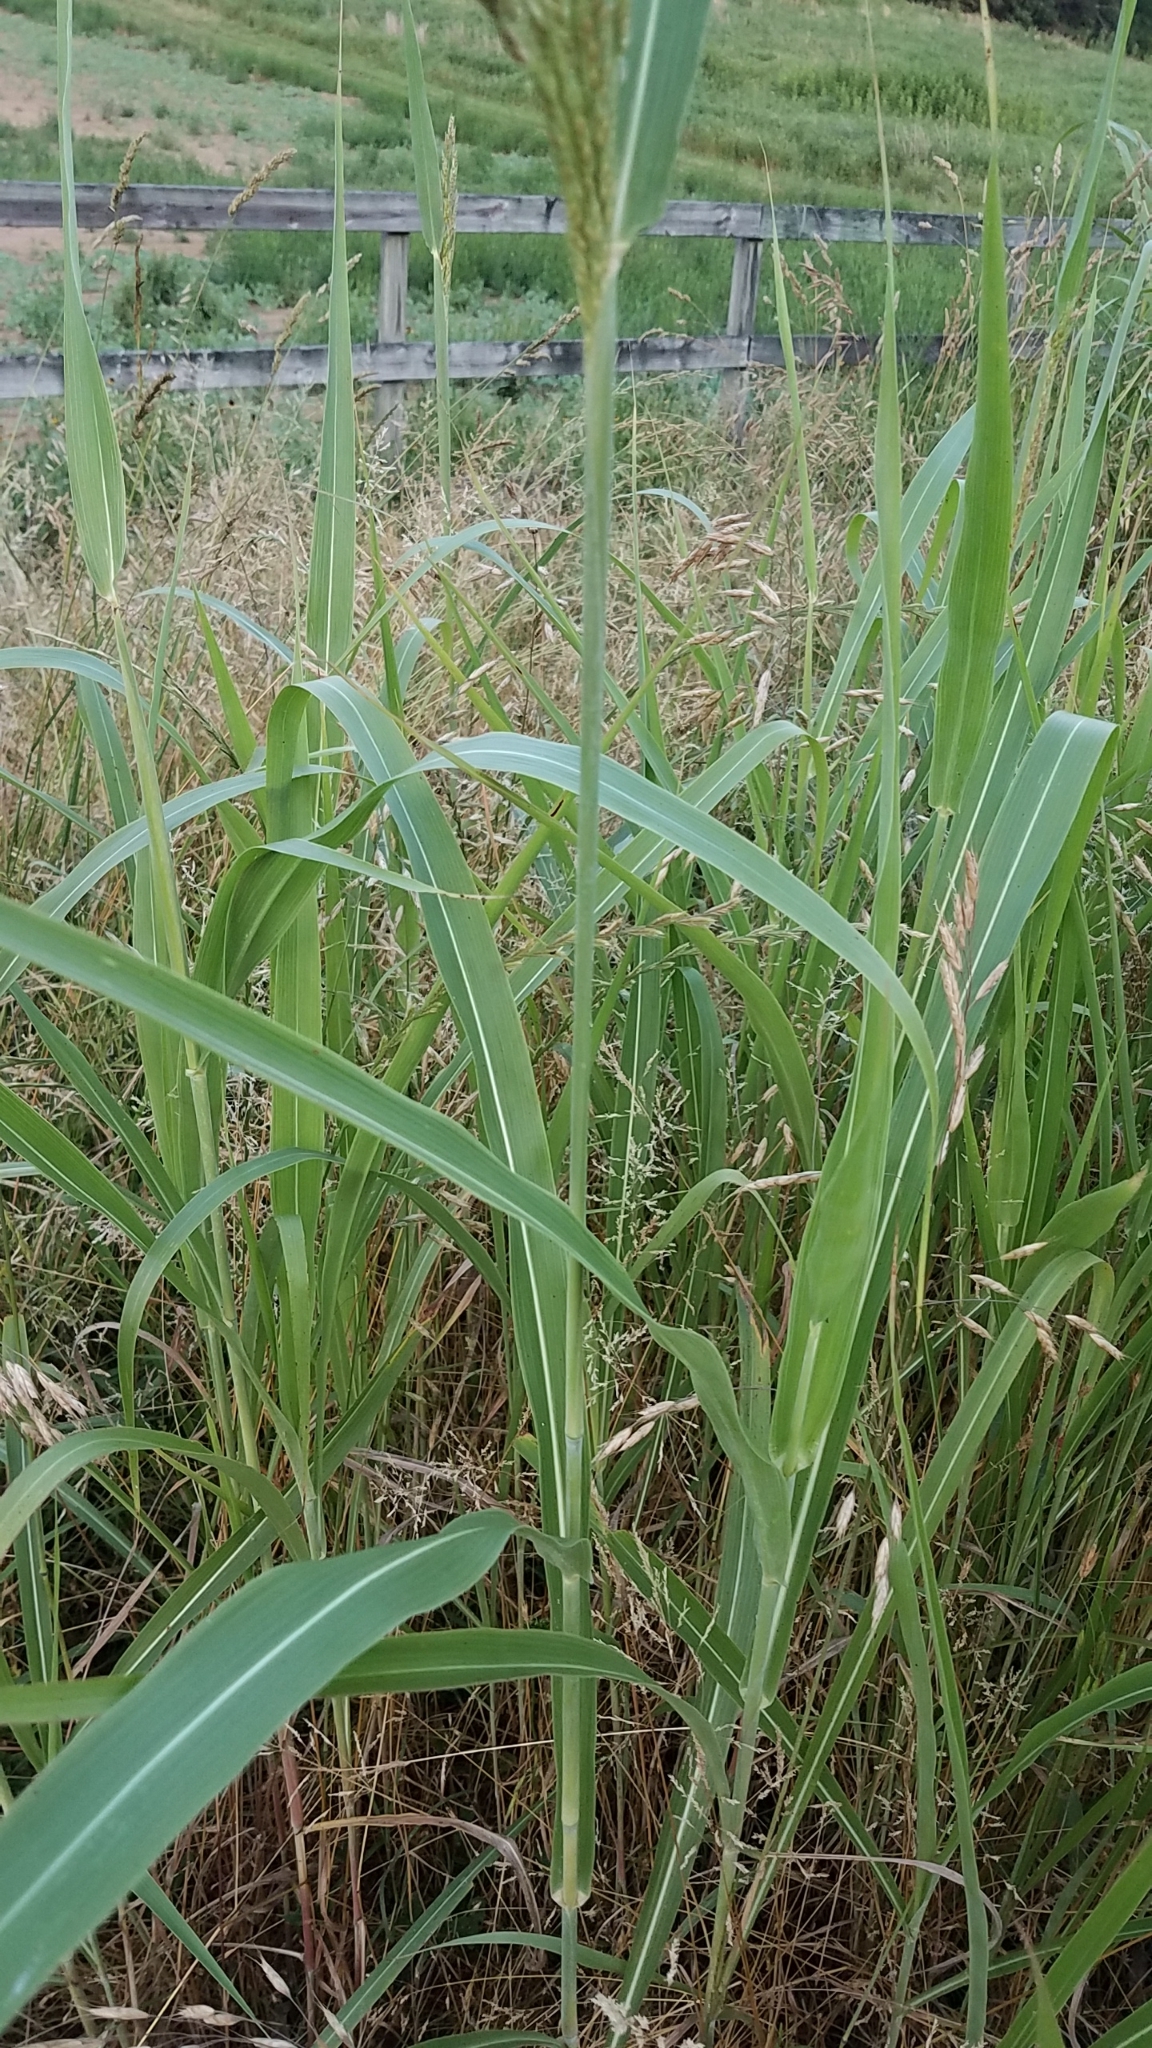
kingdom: Plantae
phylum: Tracheophyta
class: Liliopsida
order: Poales
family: Poaceae
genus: Sorghum
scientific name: Sorghum halepense
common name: Johnson-grass
